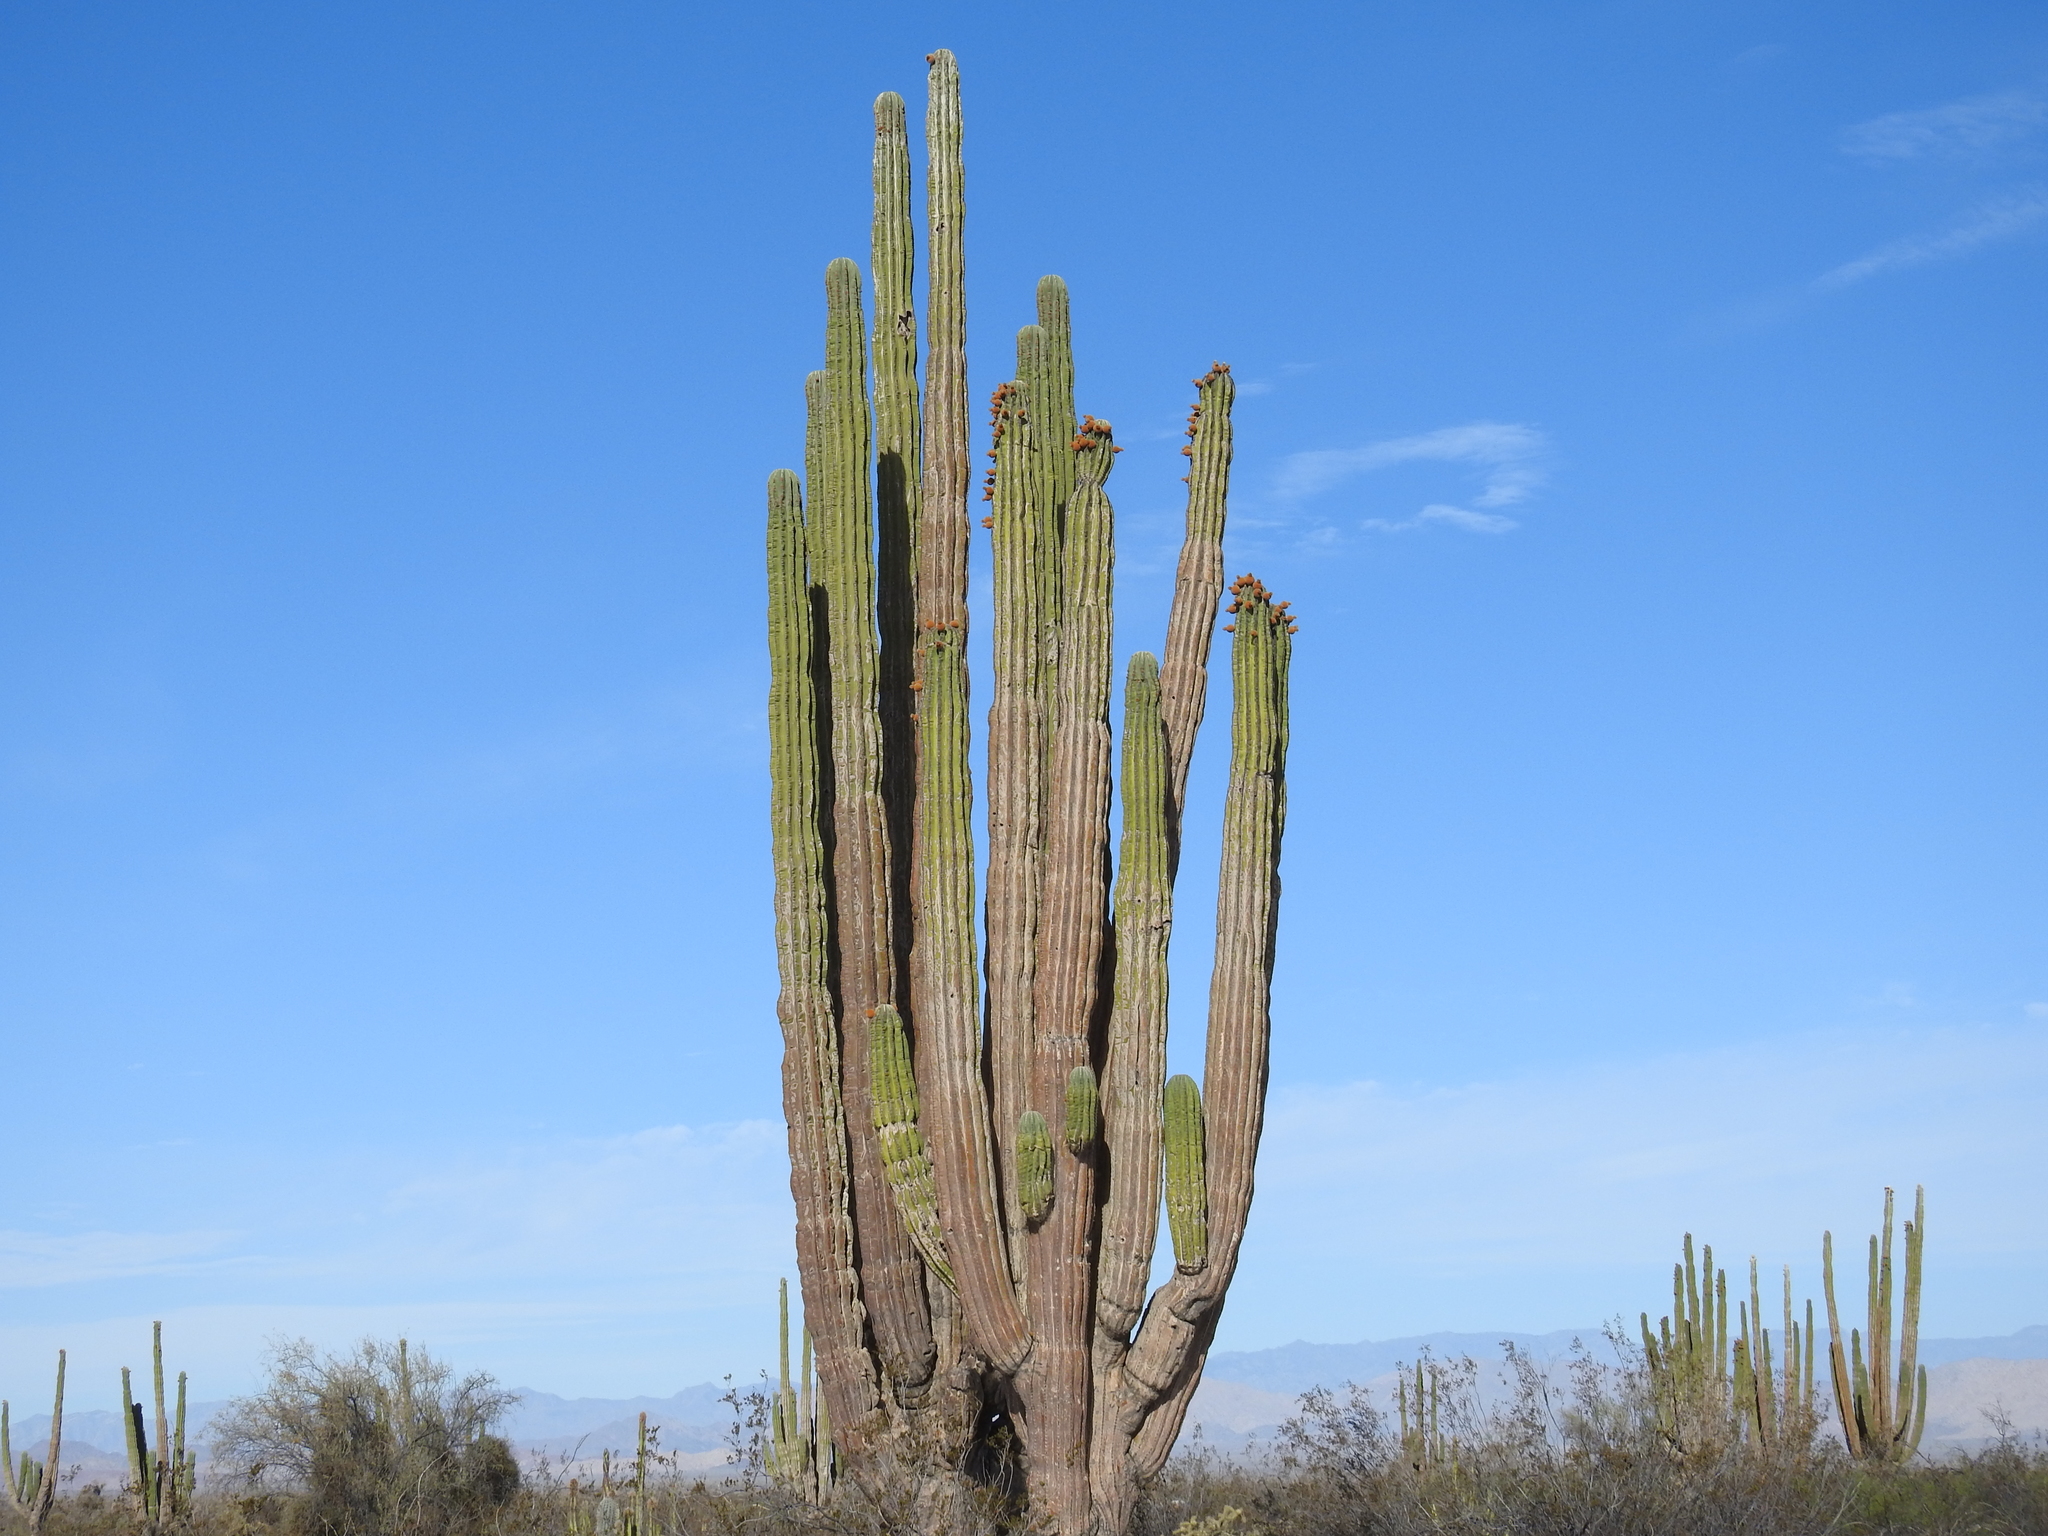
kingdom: Plantae
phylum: Tracheophyta
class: Magnoliopsida
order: Caryophyllales
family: Cactaceae
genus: Pachycereus
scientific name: Pachycereus pringlei
